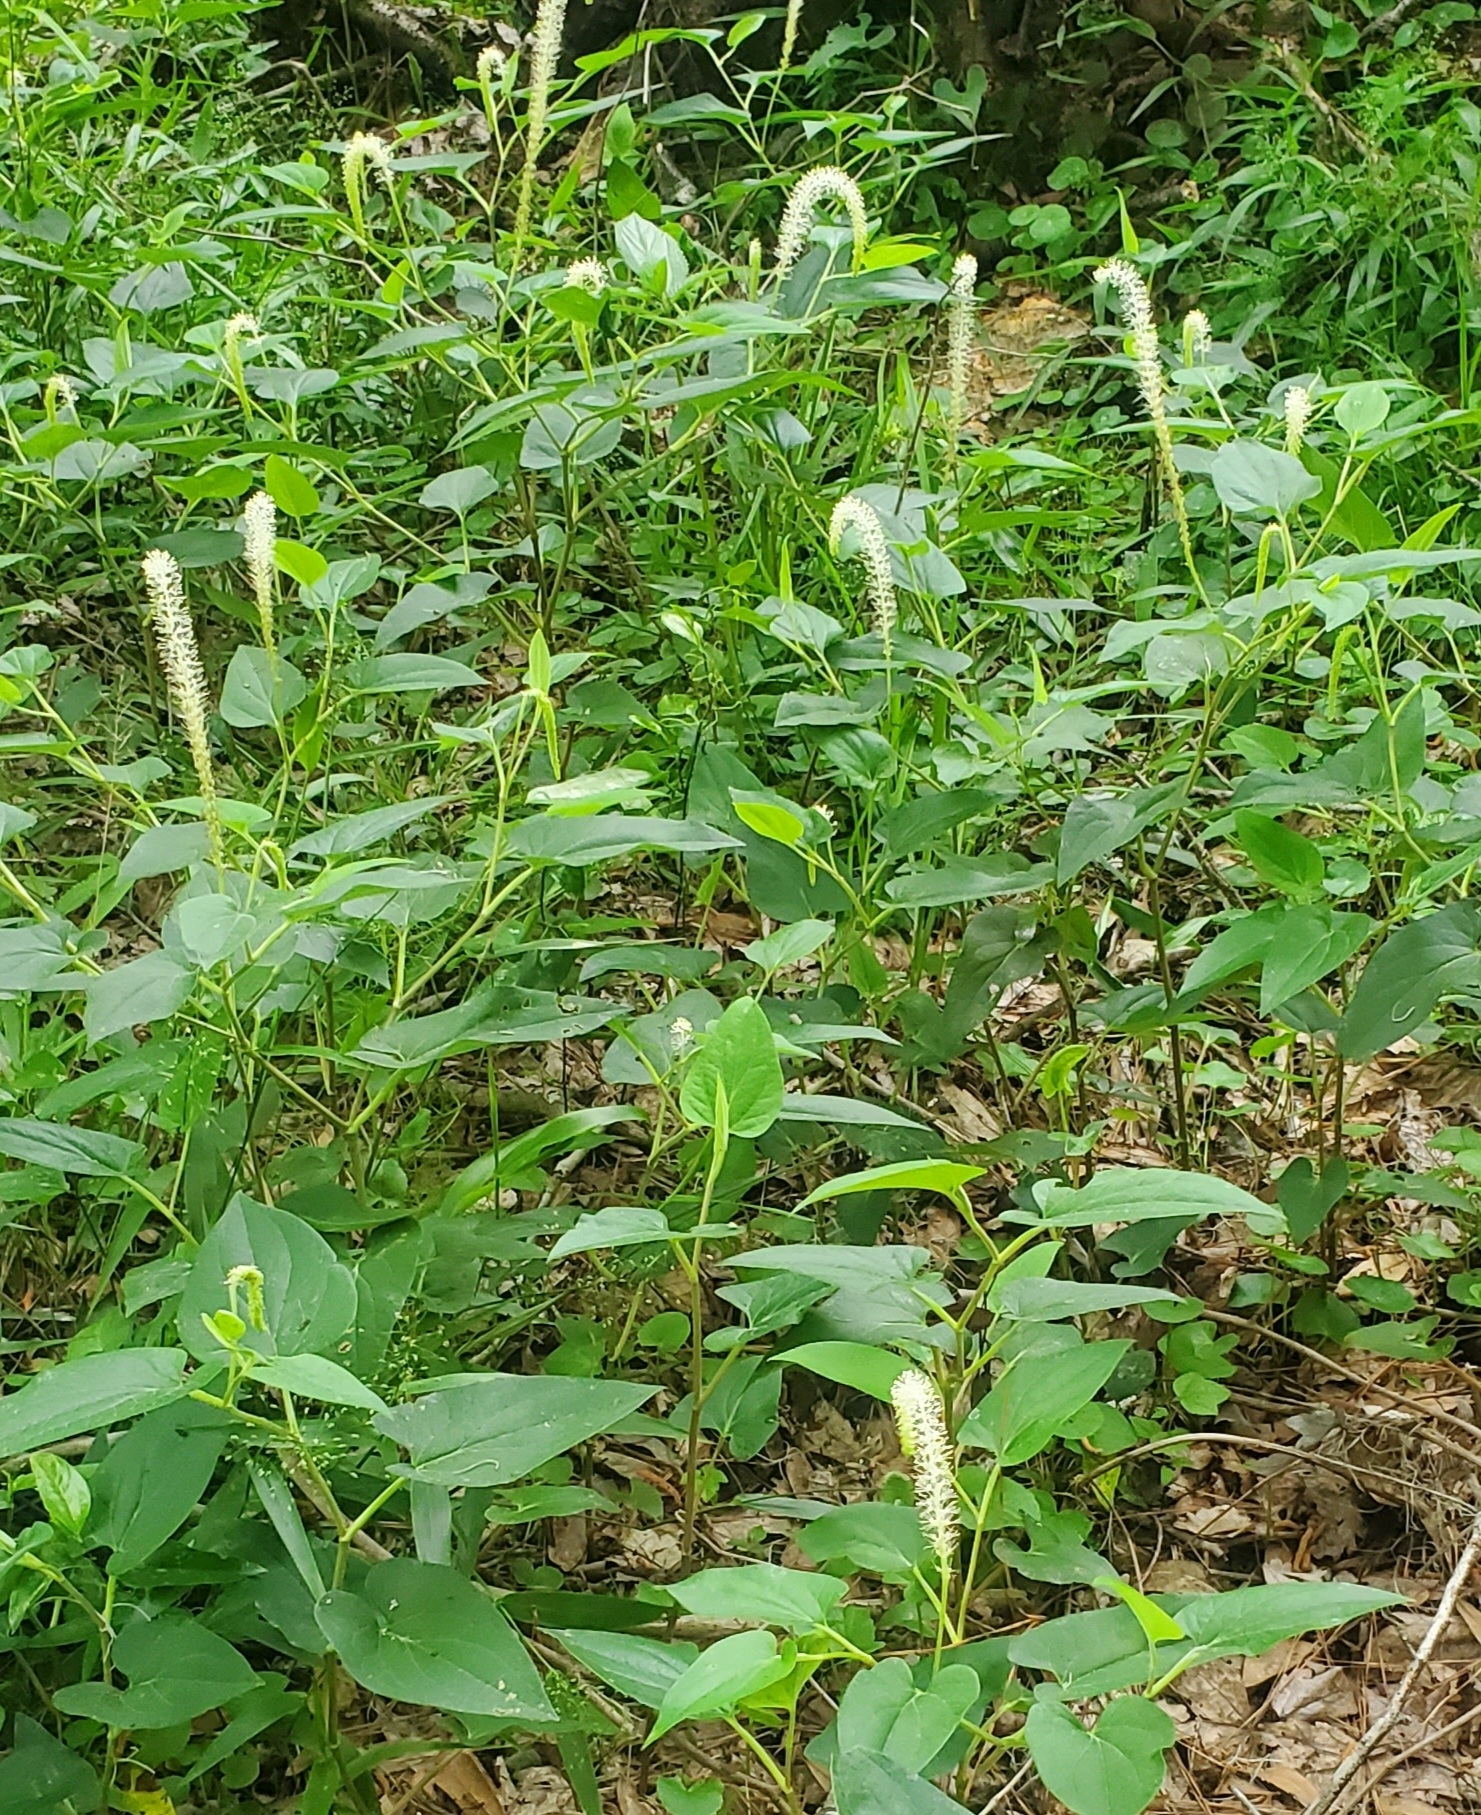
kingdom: Plantae
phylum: Tracheophyta
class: Magnoliopsida
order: Piperales
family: Saururaceae
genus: Saururus
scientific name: Saururus cernuus
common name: Lizard's-tail
